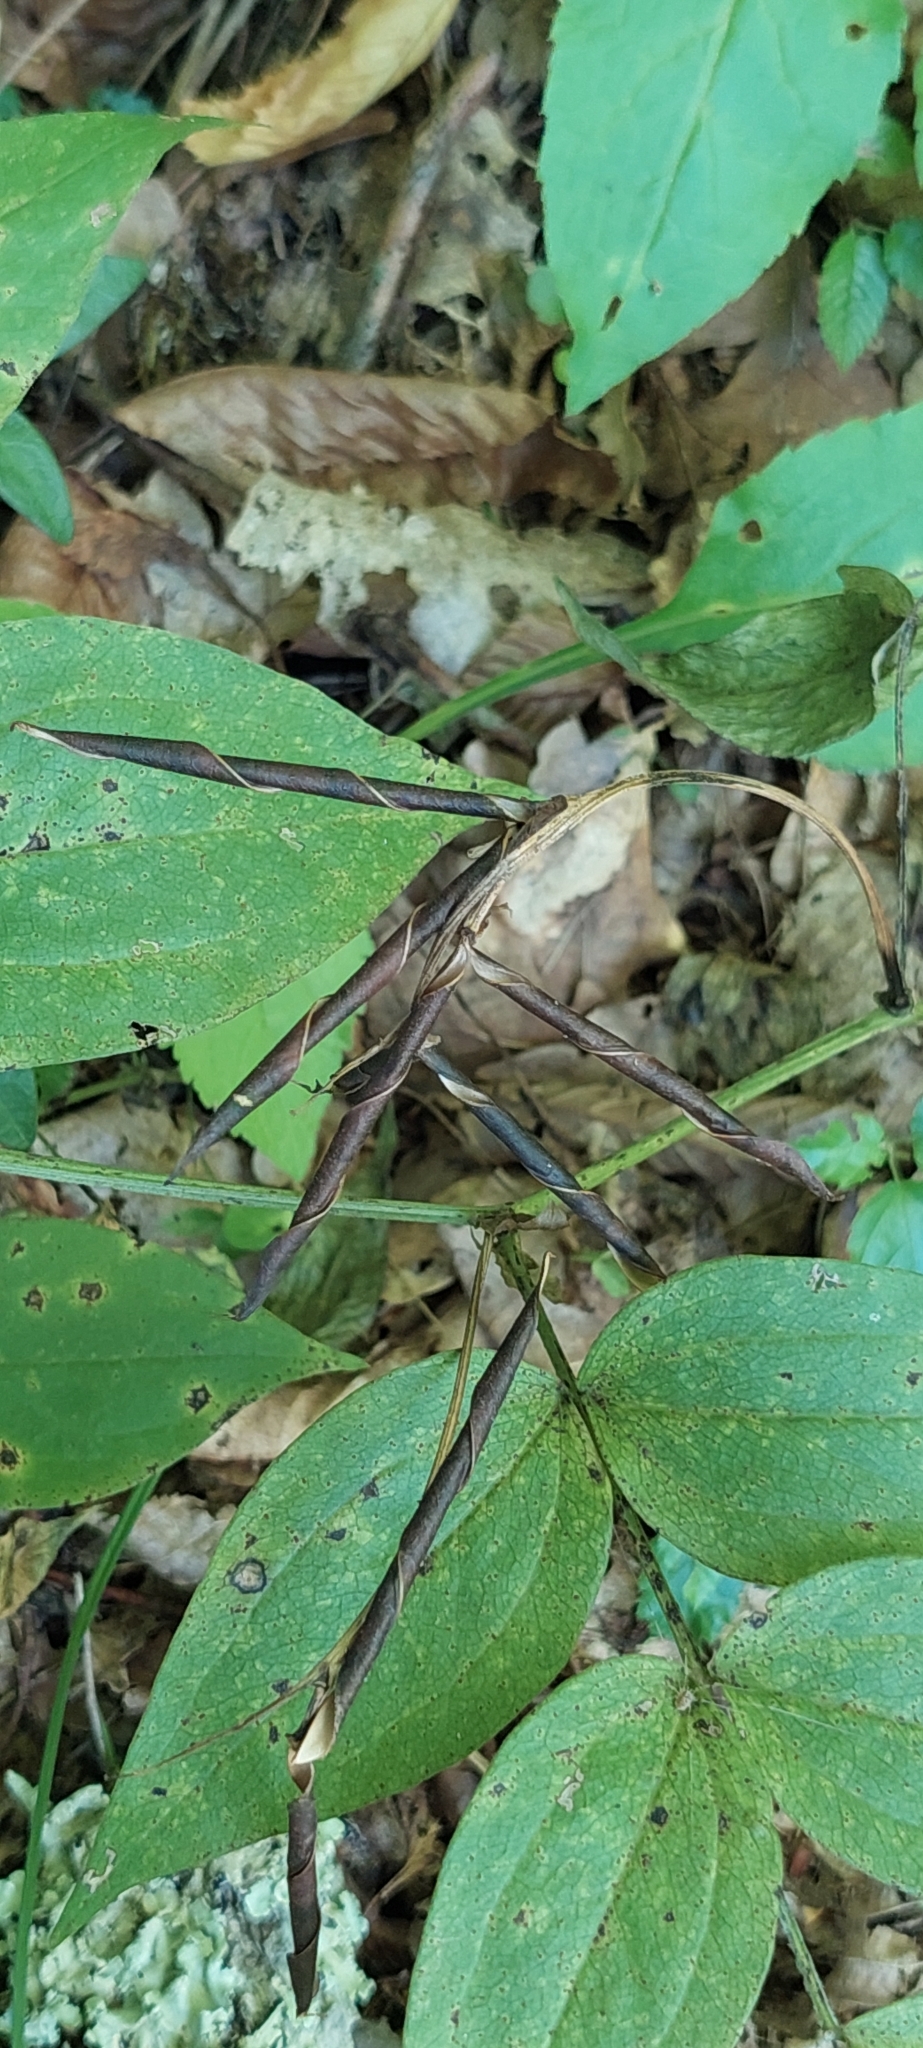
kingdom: Plantae
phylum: Tracheophyta
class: Magnoliopsida
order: Fabales
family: Fabaceae
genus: Lathyrus
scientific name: Lathyrus vernus
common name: Spring pea
